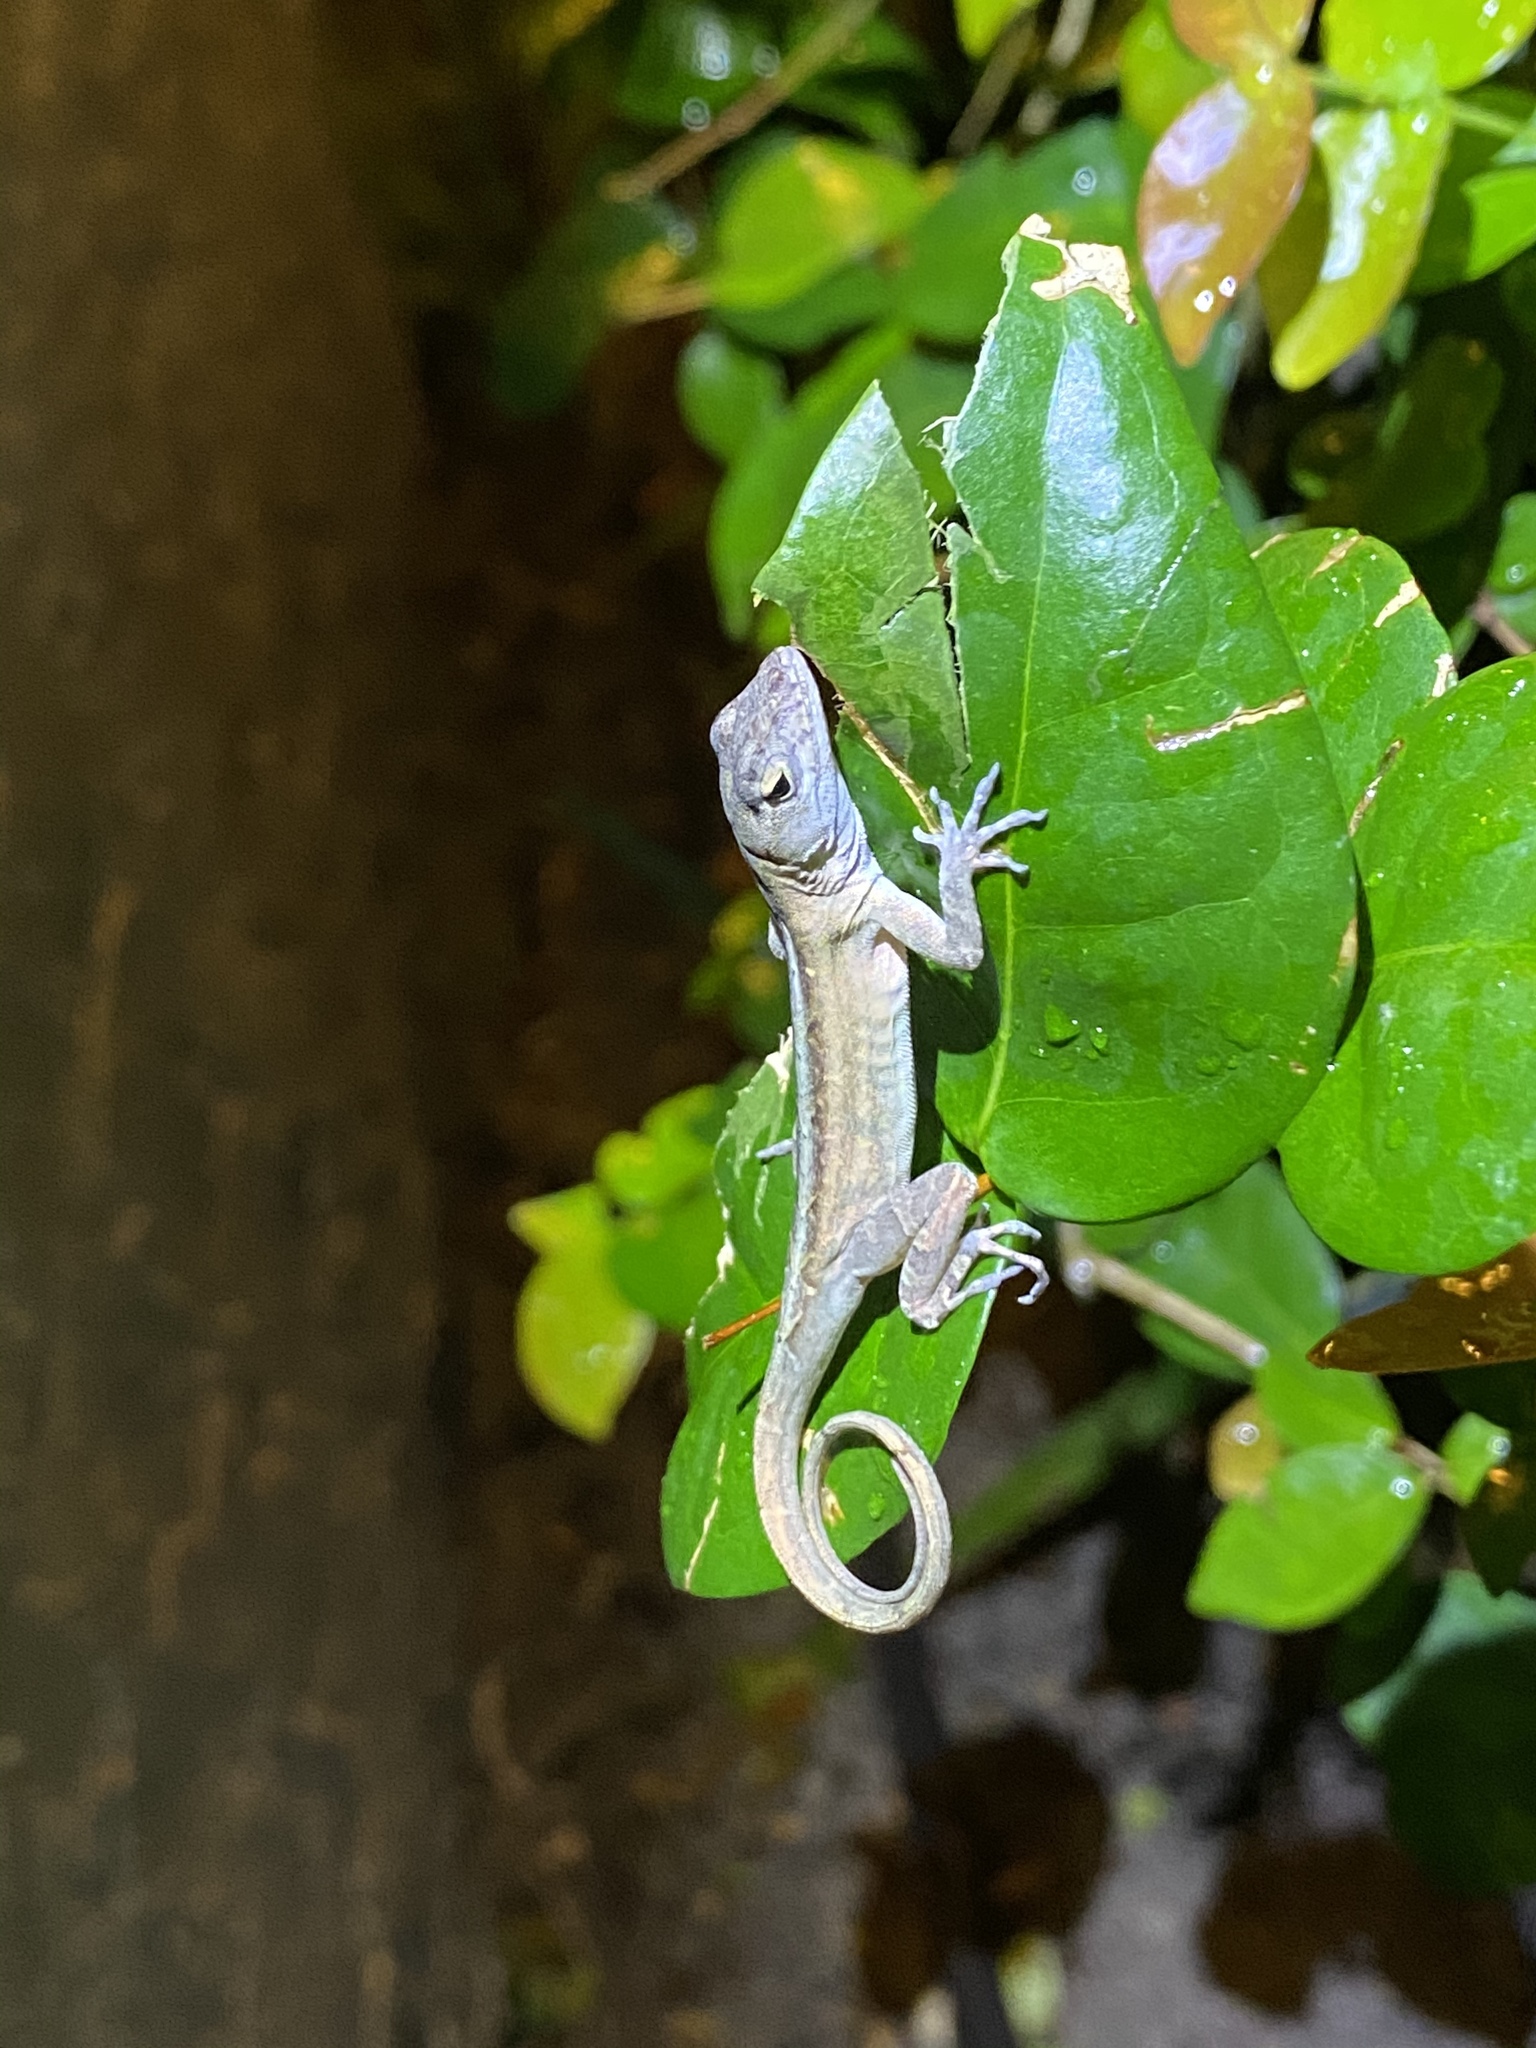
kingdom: Animalia
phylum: Chordata
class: Squamata
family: Dactyloidae
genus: Anolis
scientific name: Anolis sagrei
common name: Brown anole
